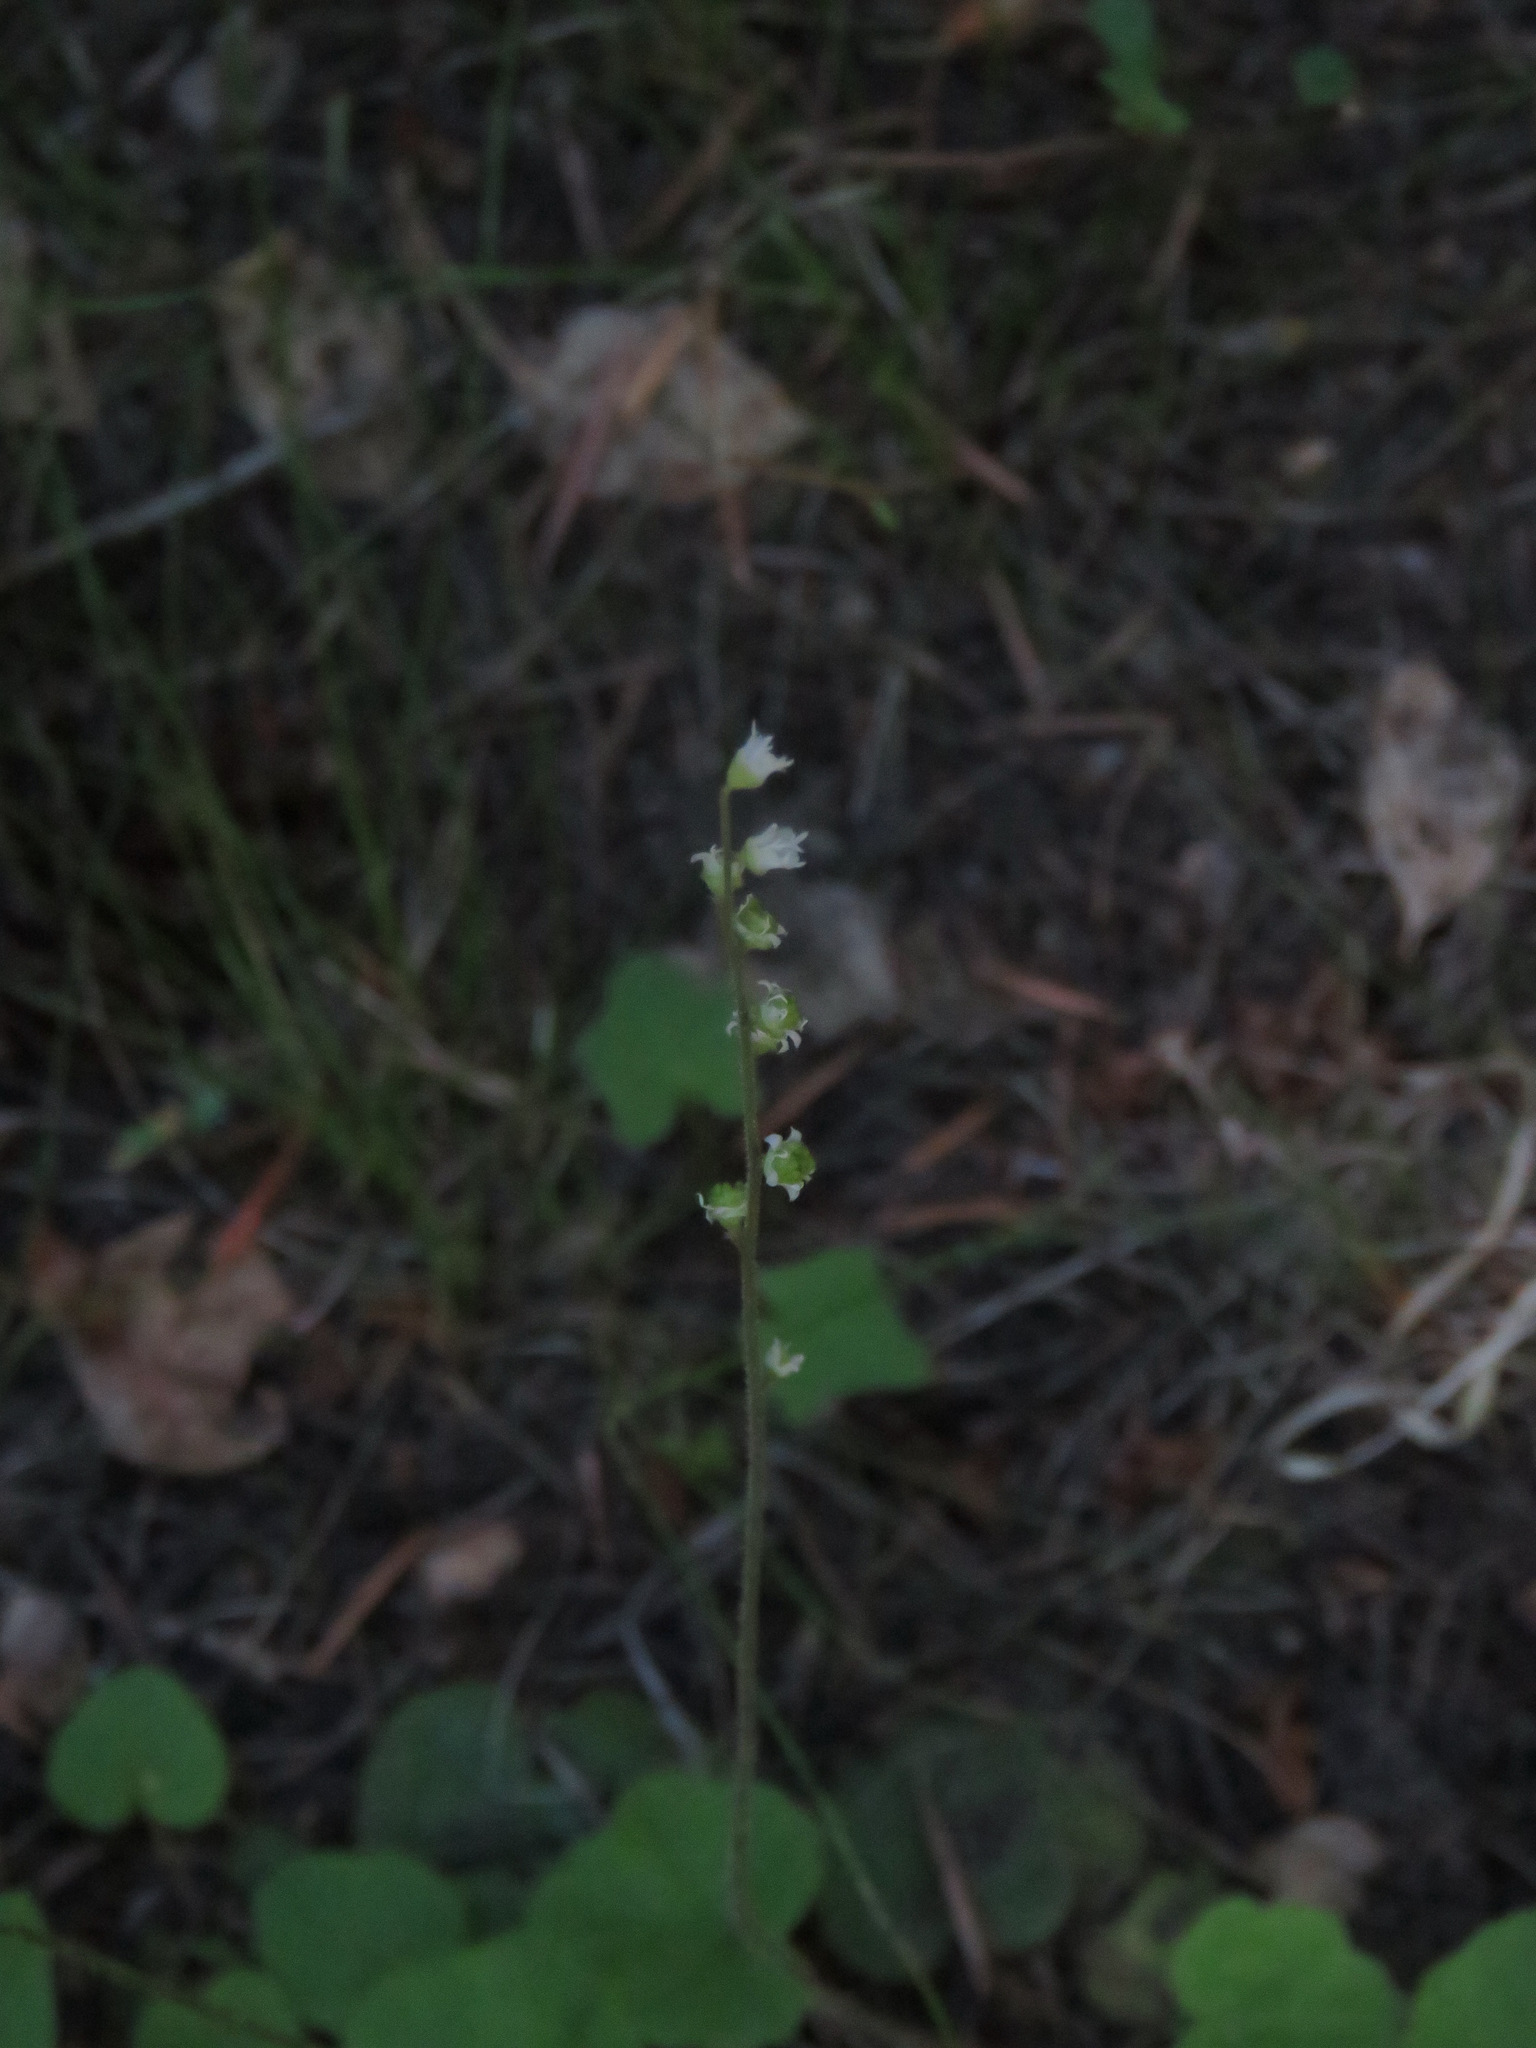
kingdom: Plantae
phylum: Tracheophyta
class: Magnoliopsida
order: Saxifragales
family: Saxifragaceae
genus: Ozomelis
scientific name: Ozomelis trifida
